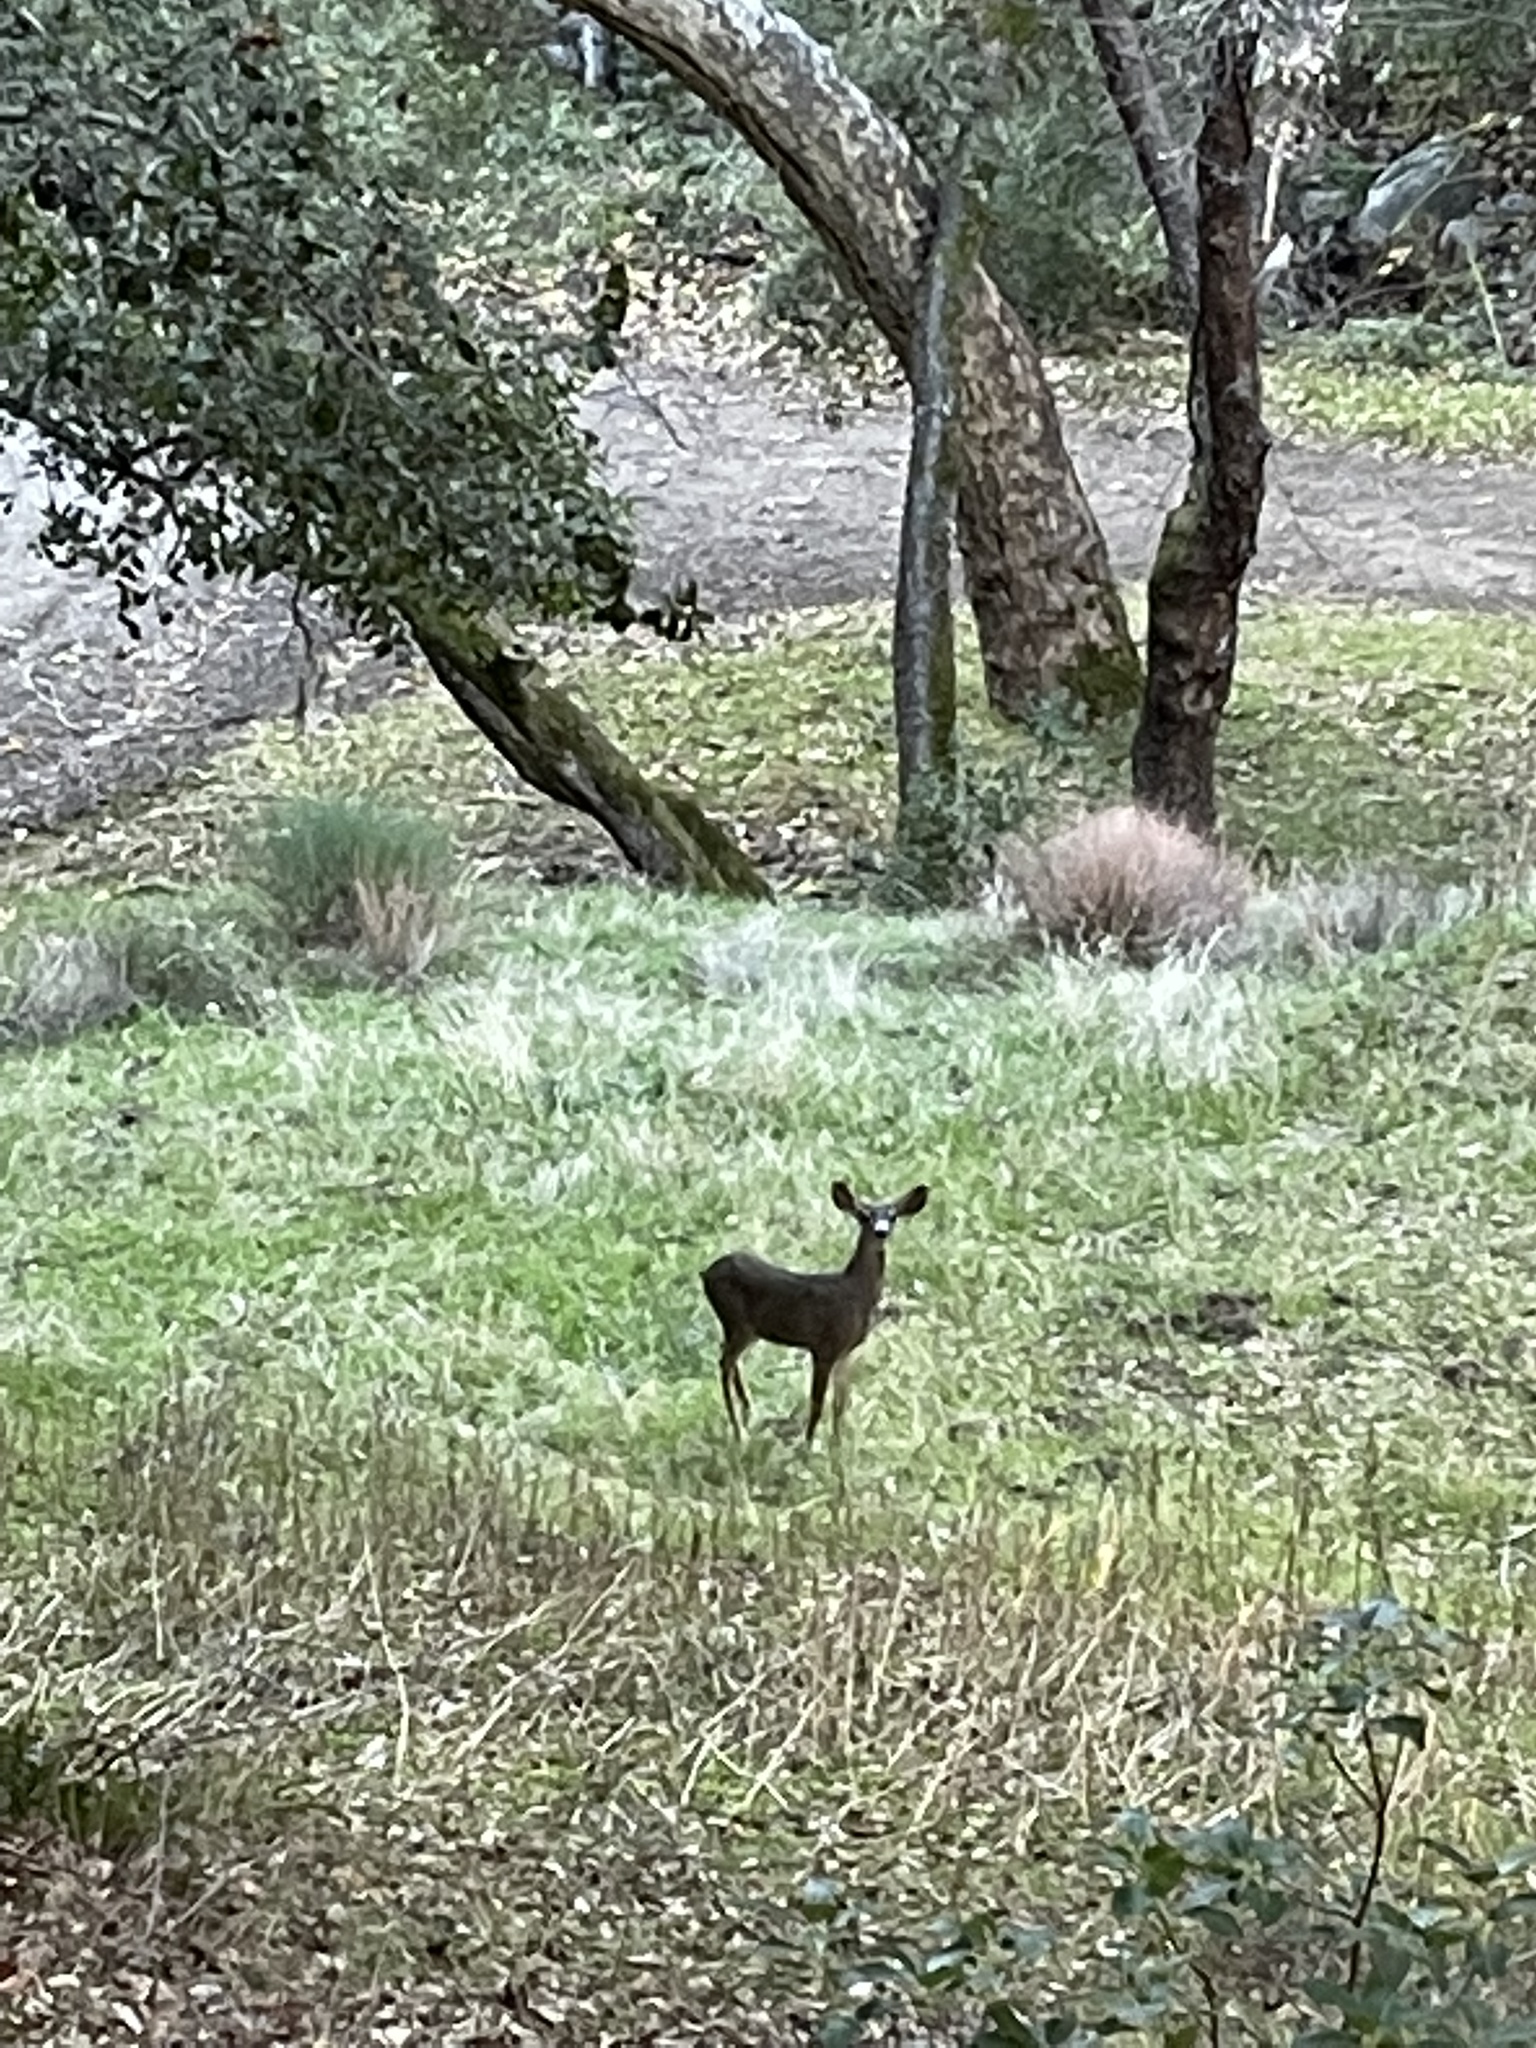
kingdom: Animalia
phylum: Chordata
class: Mammalia
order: Artiodactyla
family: Cervidae
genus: Odocoileus
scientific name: Odocoileus hemionus
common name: Mule deer
